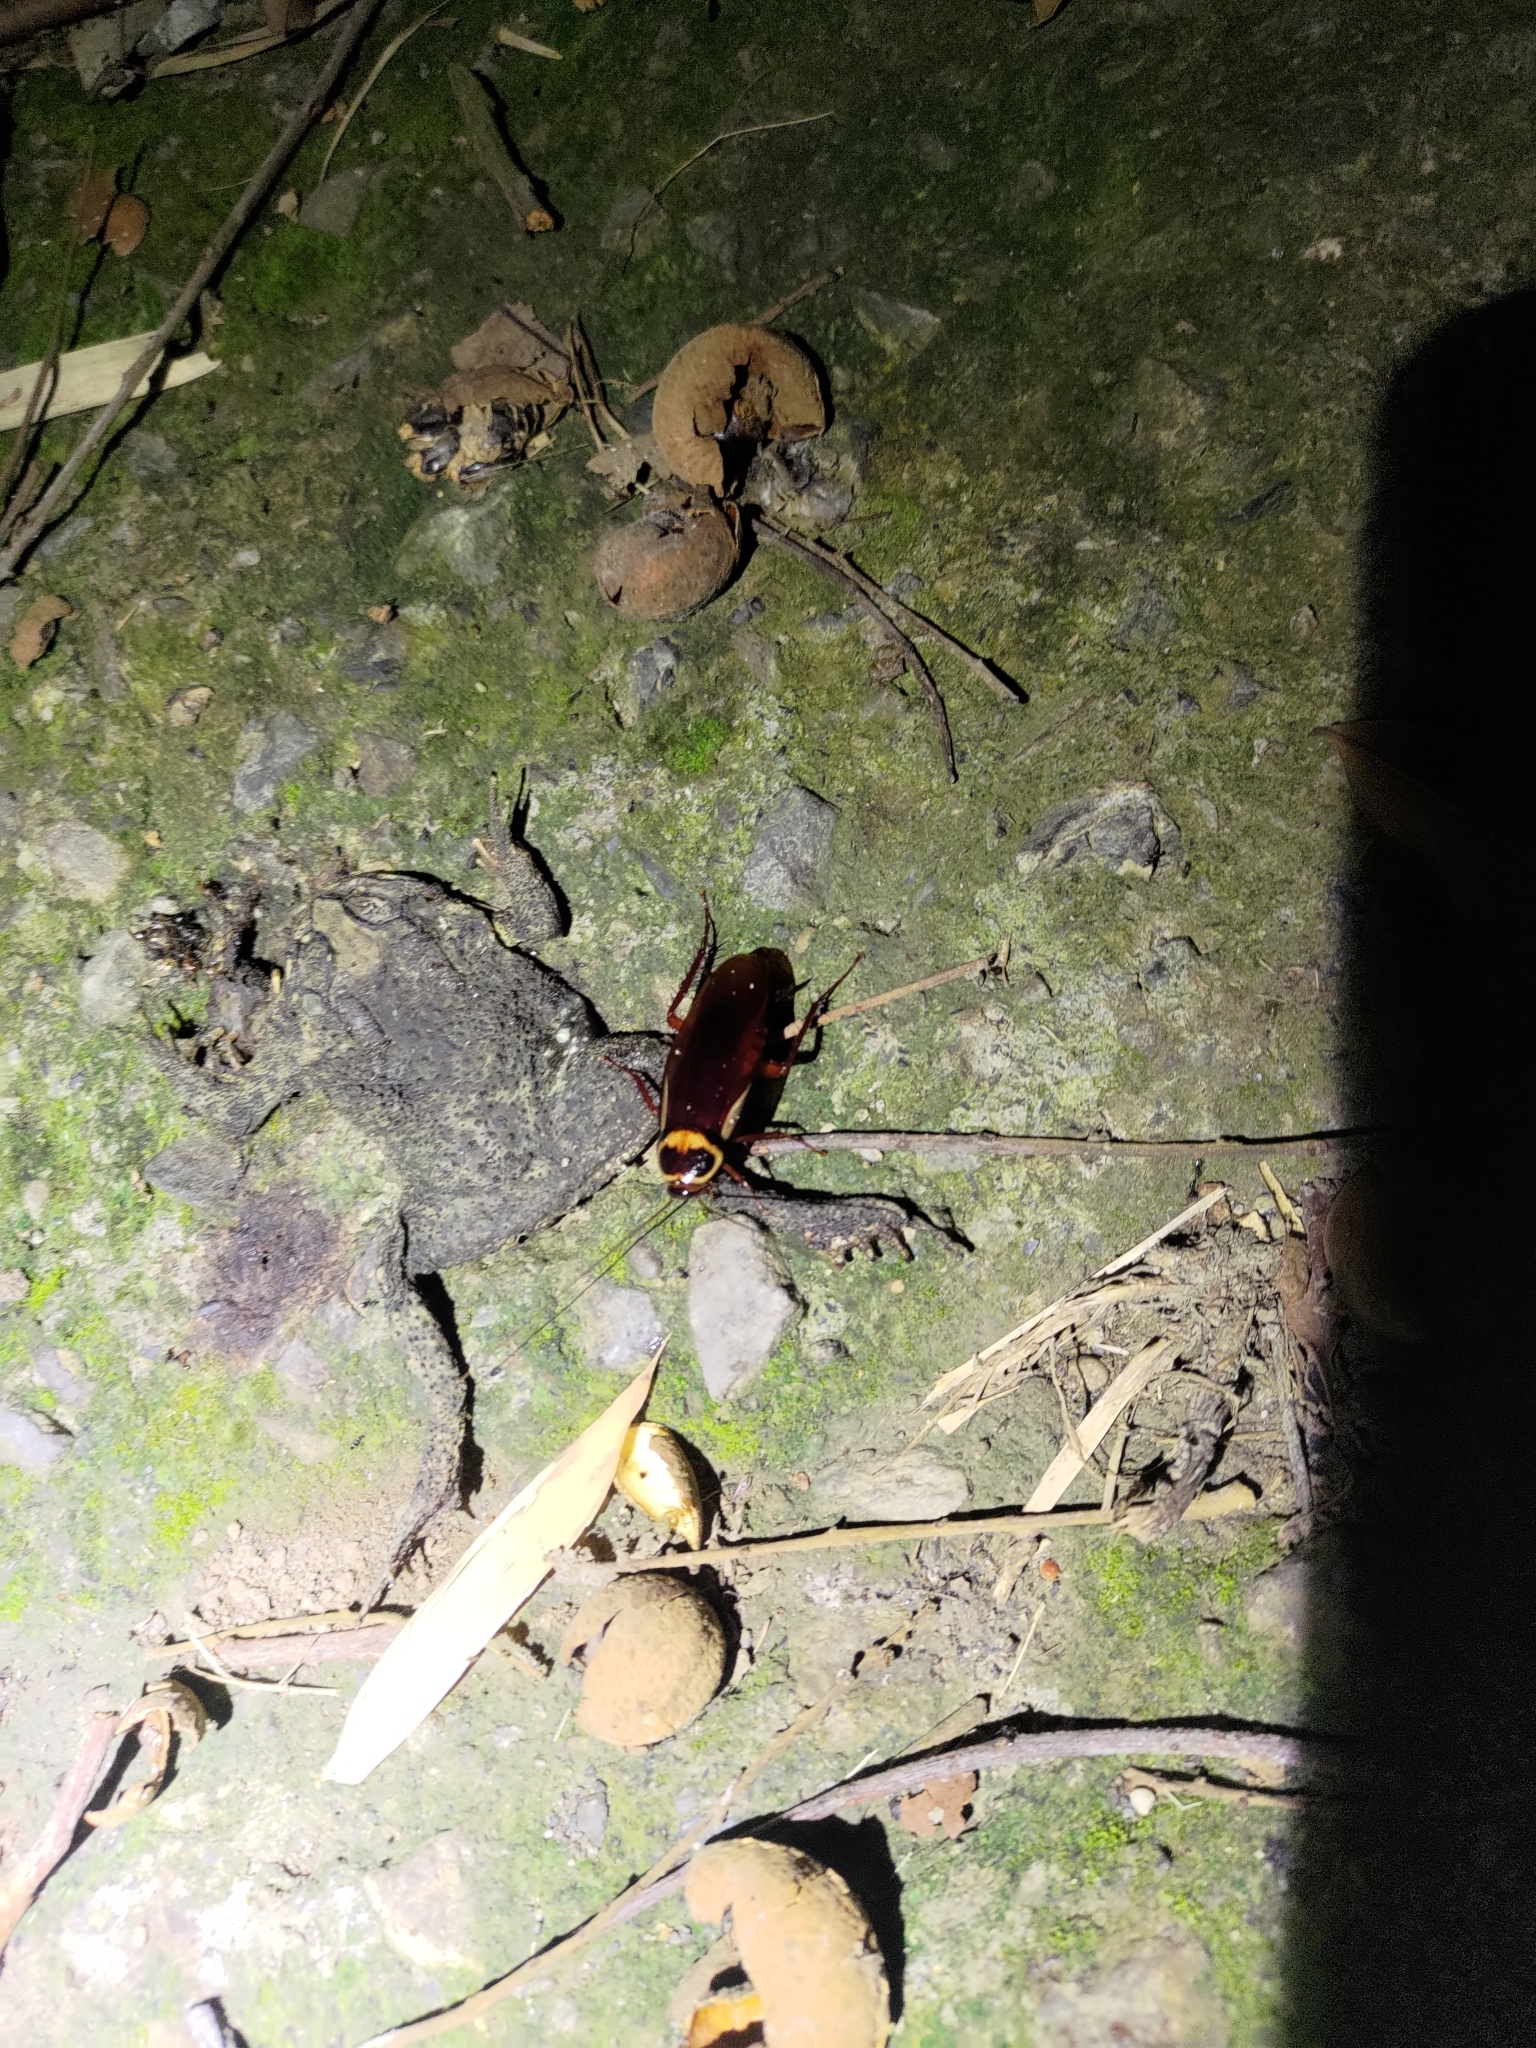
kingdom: Animalia
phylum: Arthropoda
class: Insecta
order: Blattodea
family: Blattidae
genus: Periplaneta
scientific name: Periplaneta australasiae
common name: Australian cockroach
